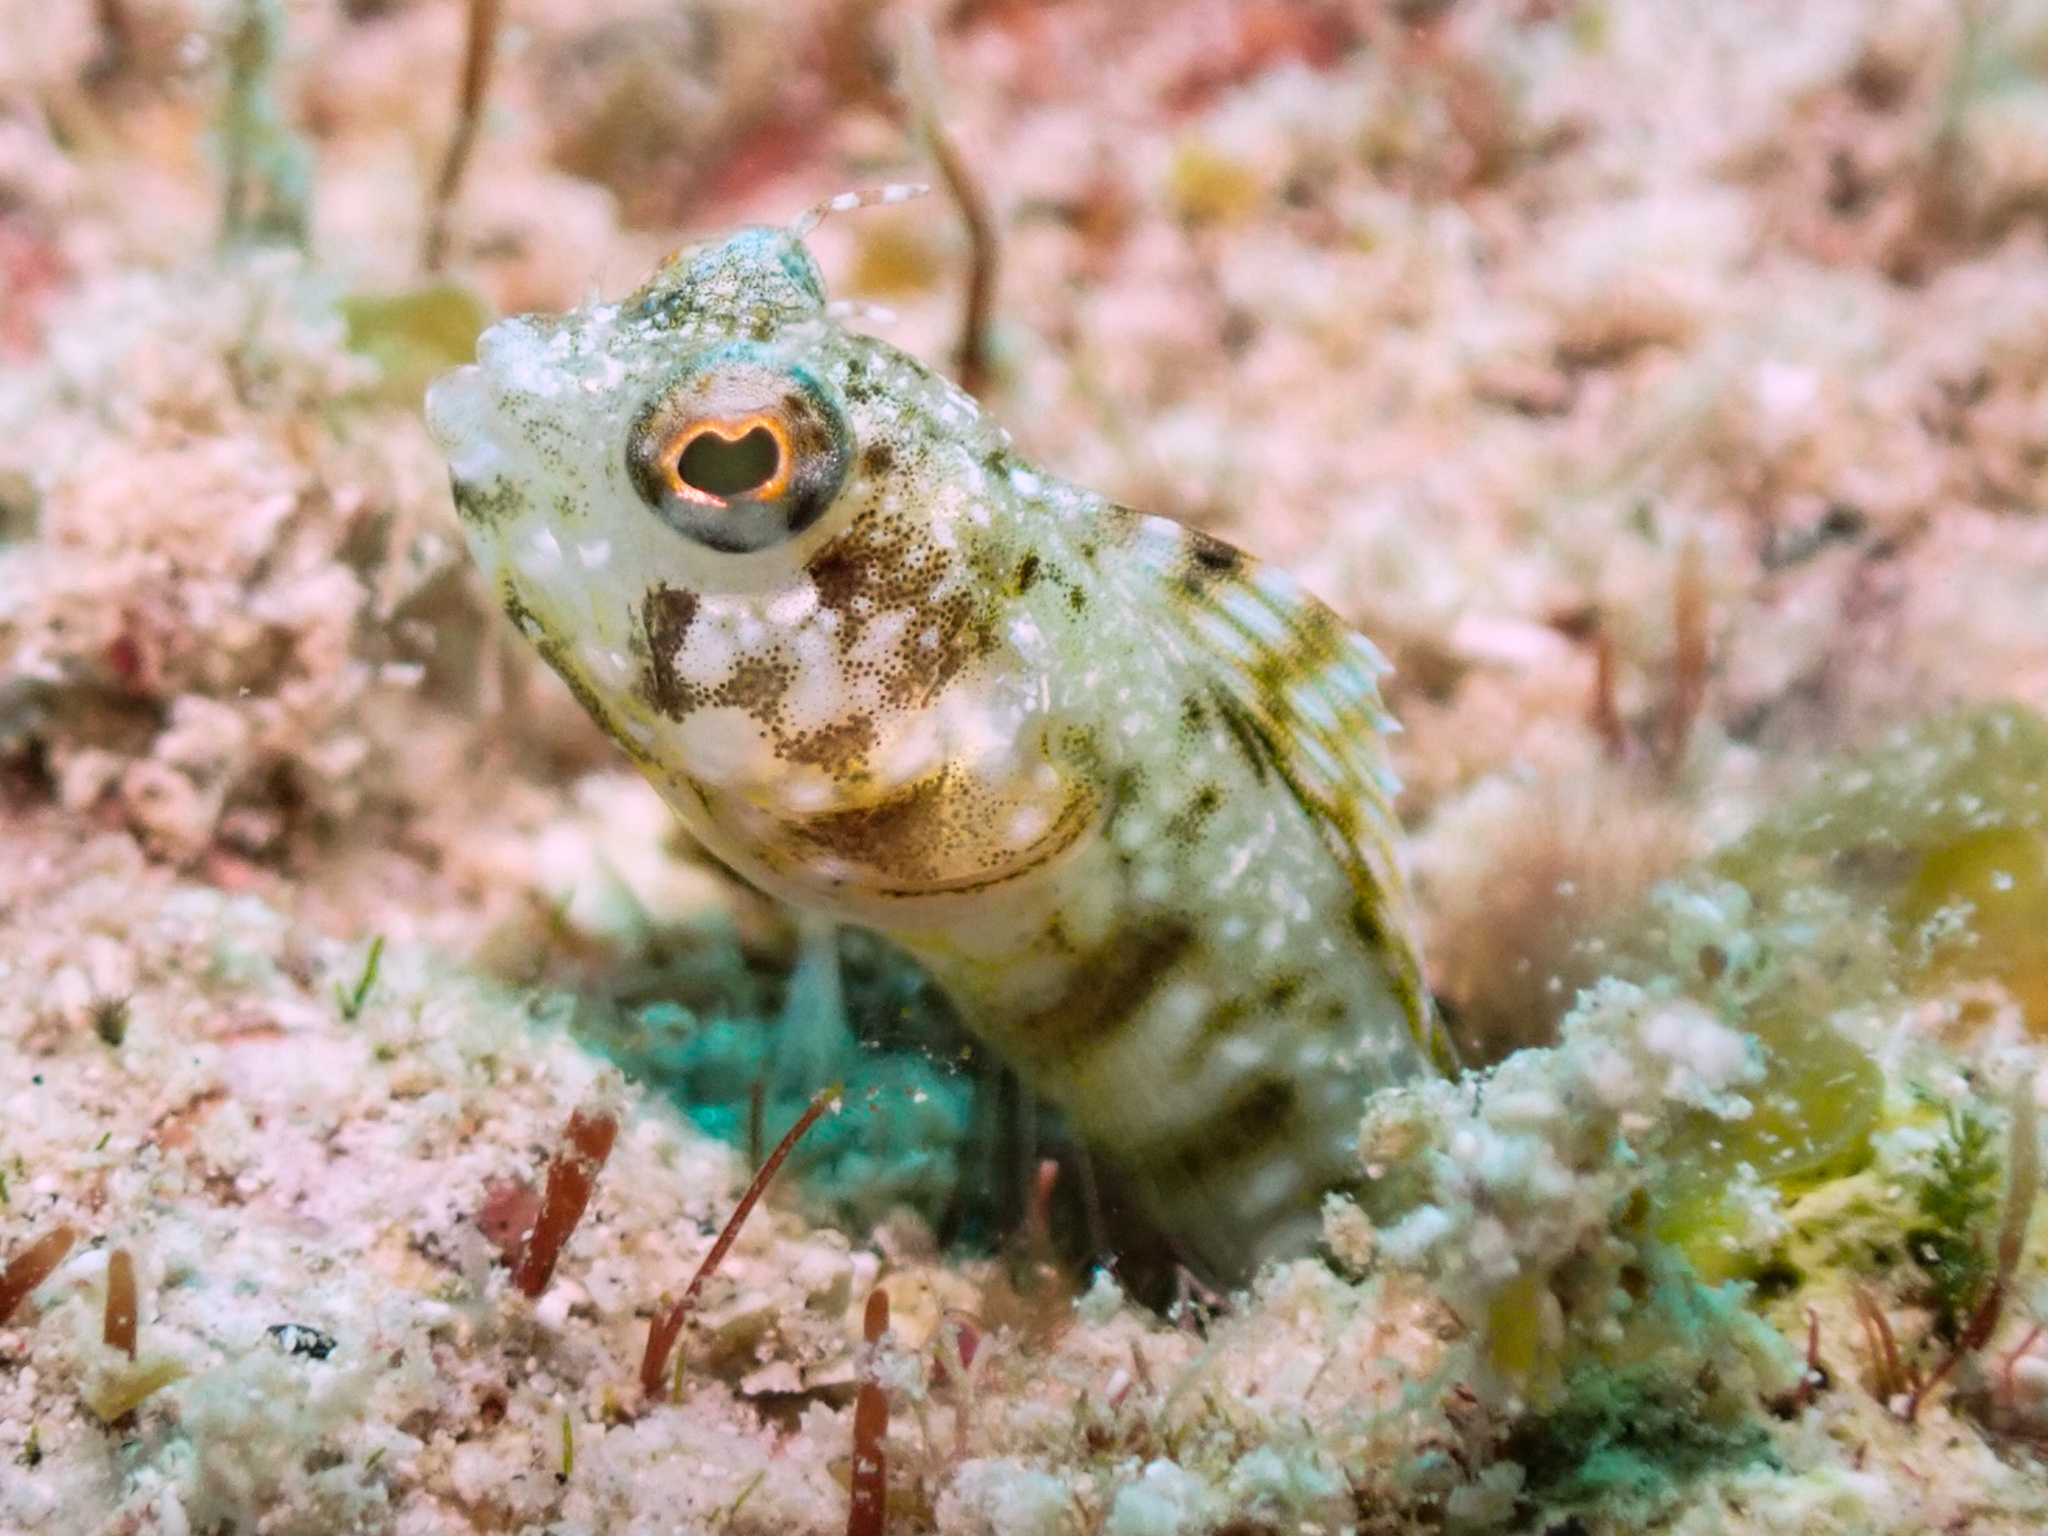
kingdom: Animalia
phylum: Chordata
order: Perciformes
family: Chaenopsidae
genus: Emblemaria
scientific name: Emblemaria pandionis
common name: Sailfin blenny
